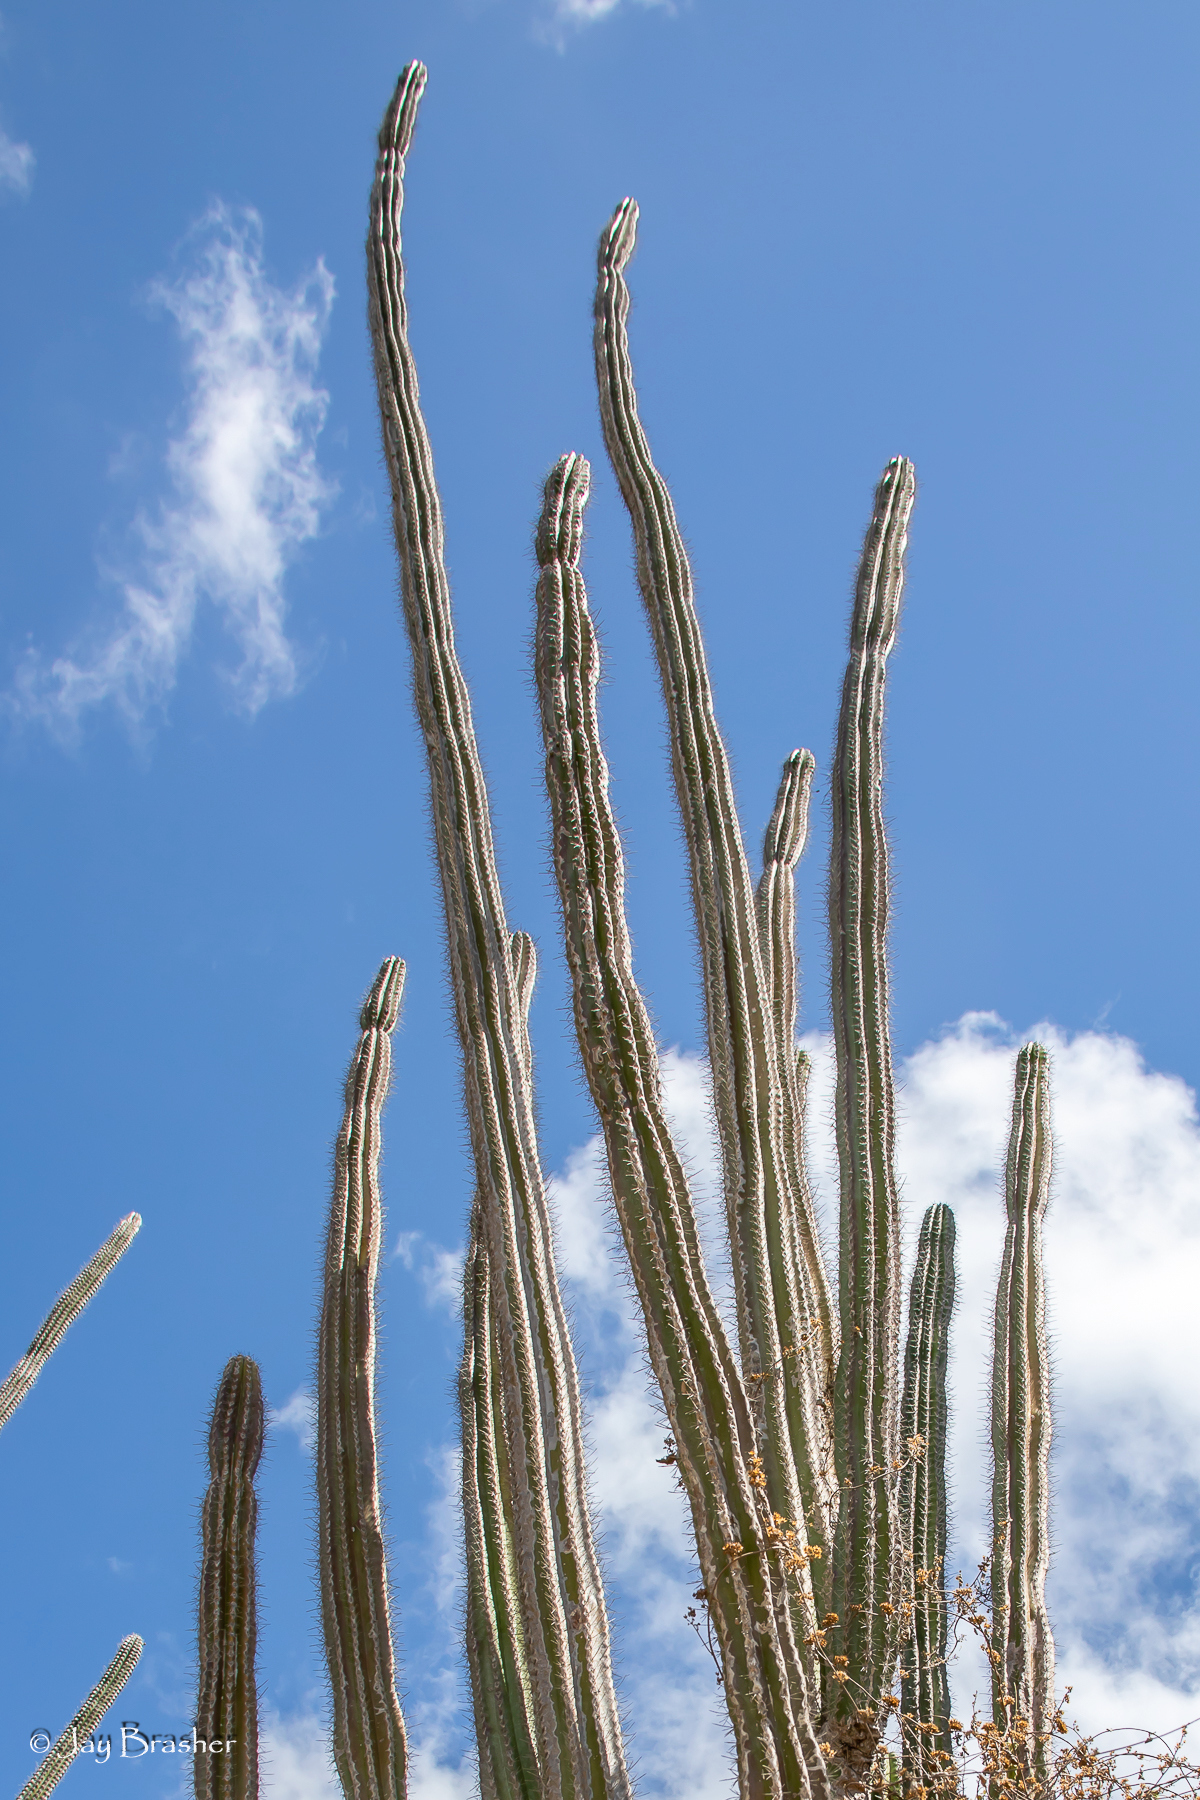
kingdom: Plantae
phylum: Tracheophyta
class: Magnoliopsida
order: Caryophyllales
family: Cactaceae
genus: Stenocereus
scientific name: Stenocereus griseus
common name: Tall candelabra cactus
